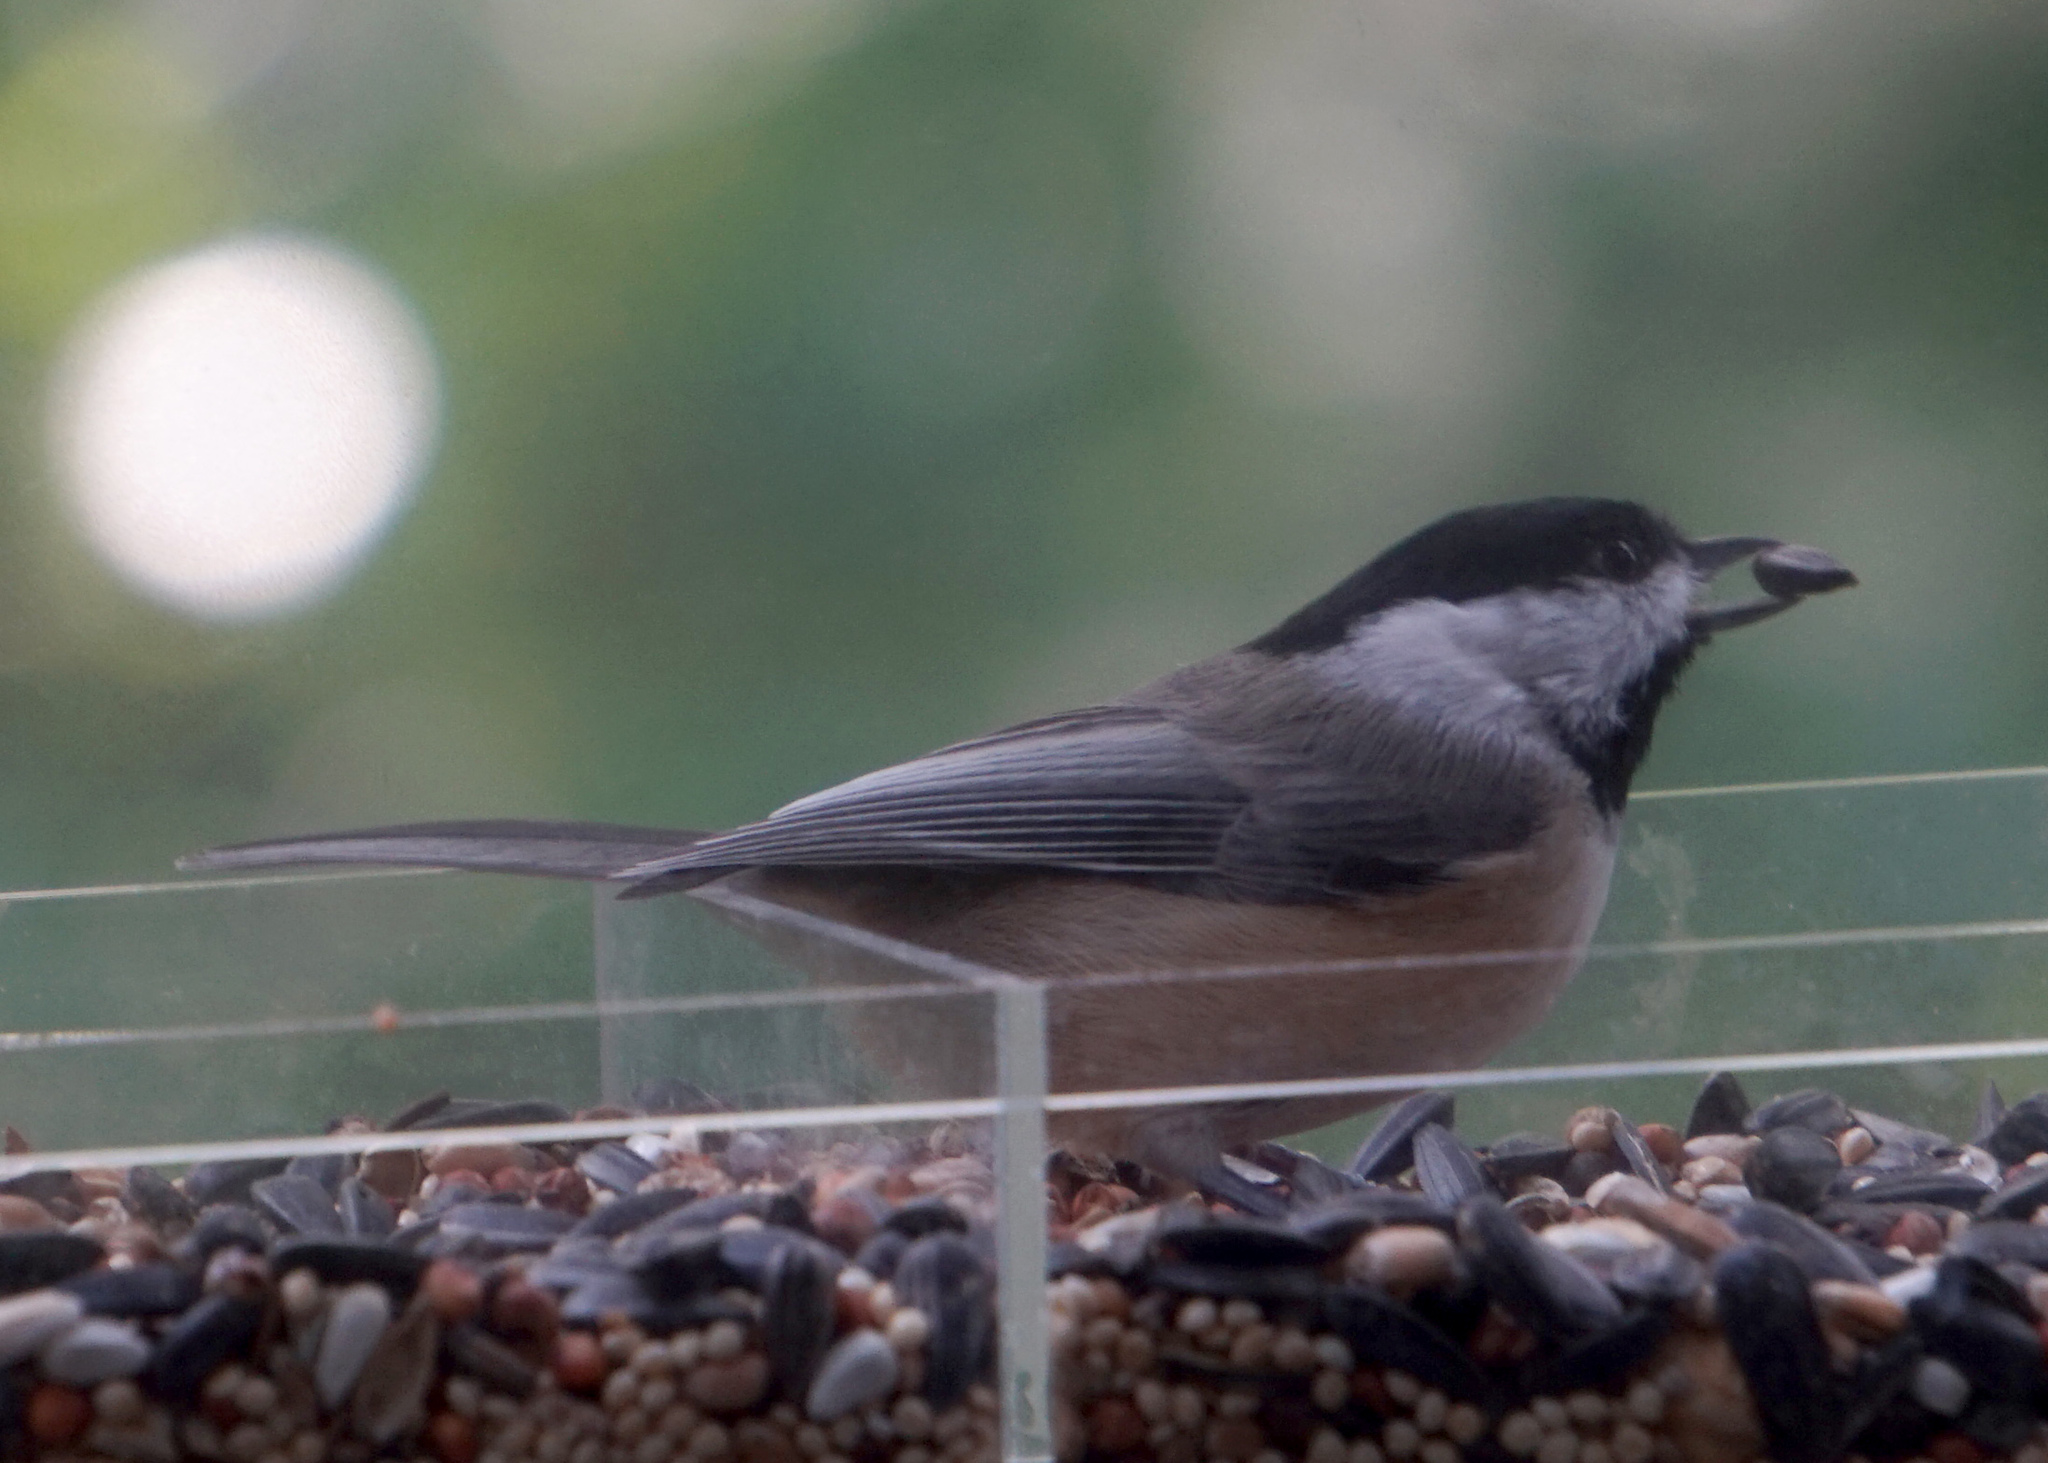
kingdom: Animalia
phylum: Chordata
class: Aves
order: Passeriformes
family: Paridae
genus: Poecile
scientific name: Poecile carolinensis
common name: Carolina chickadee
